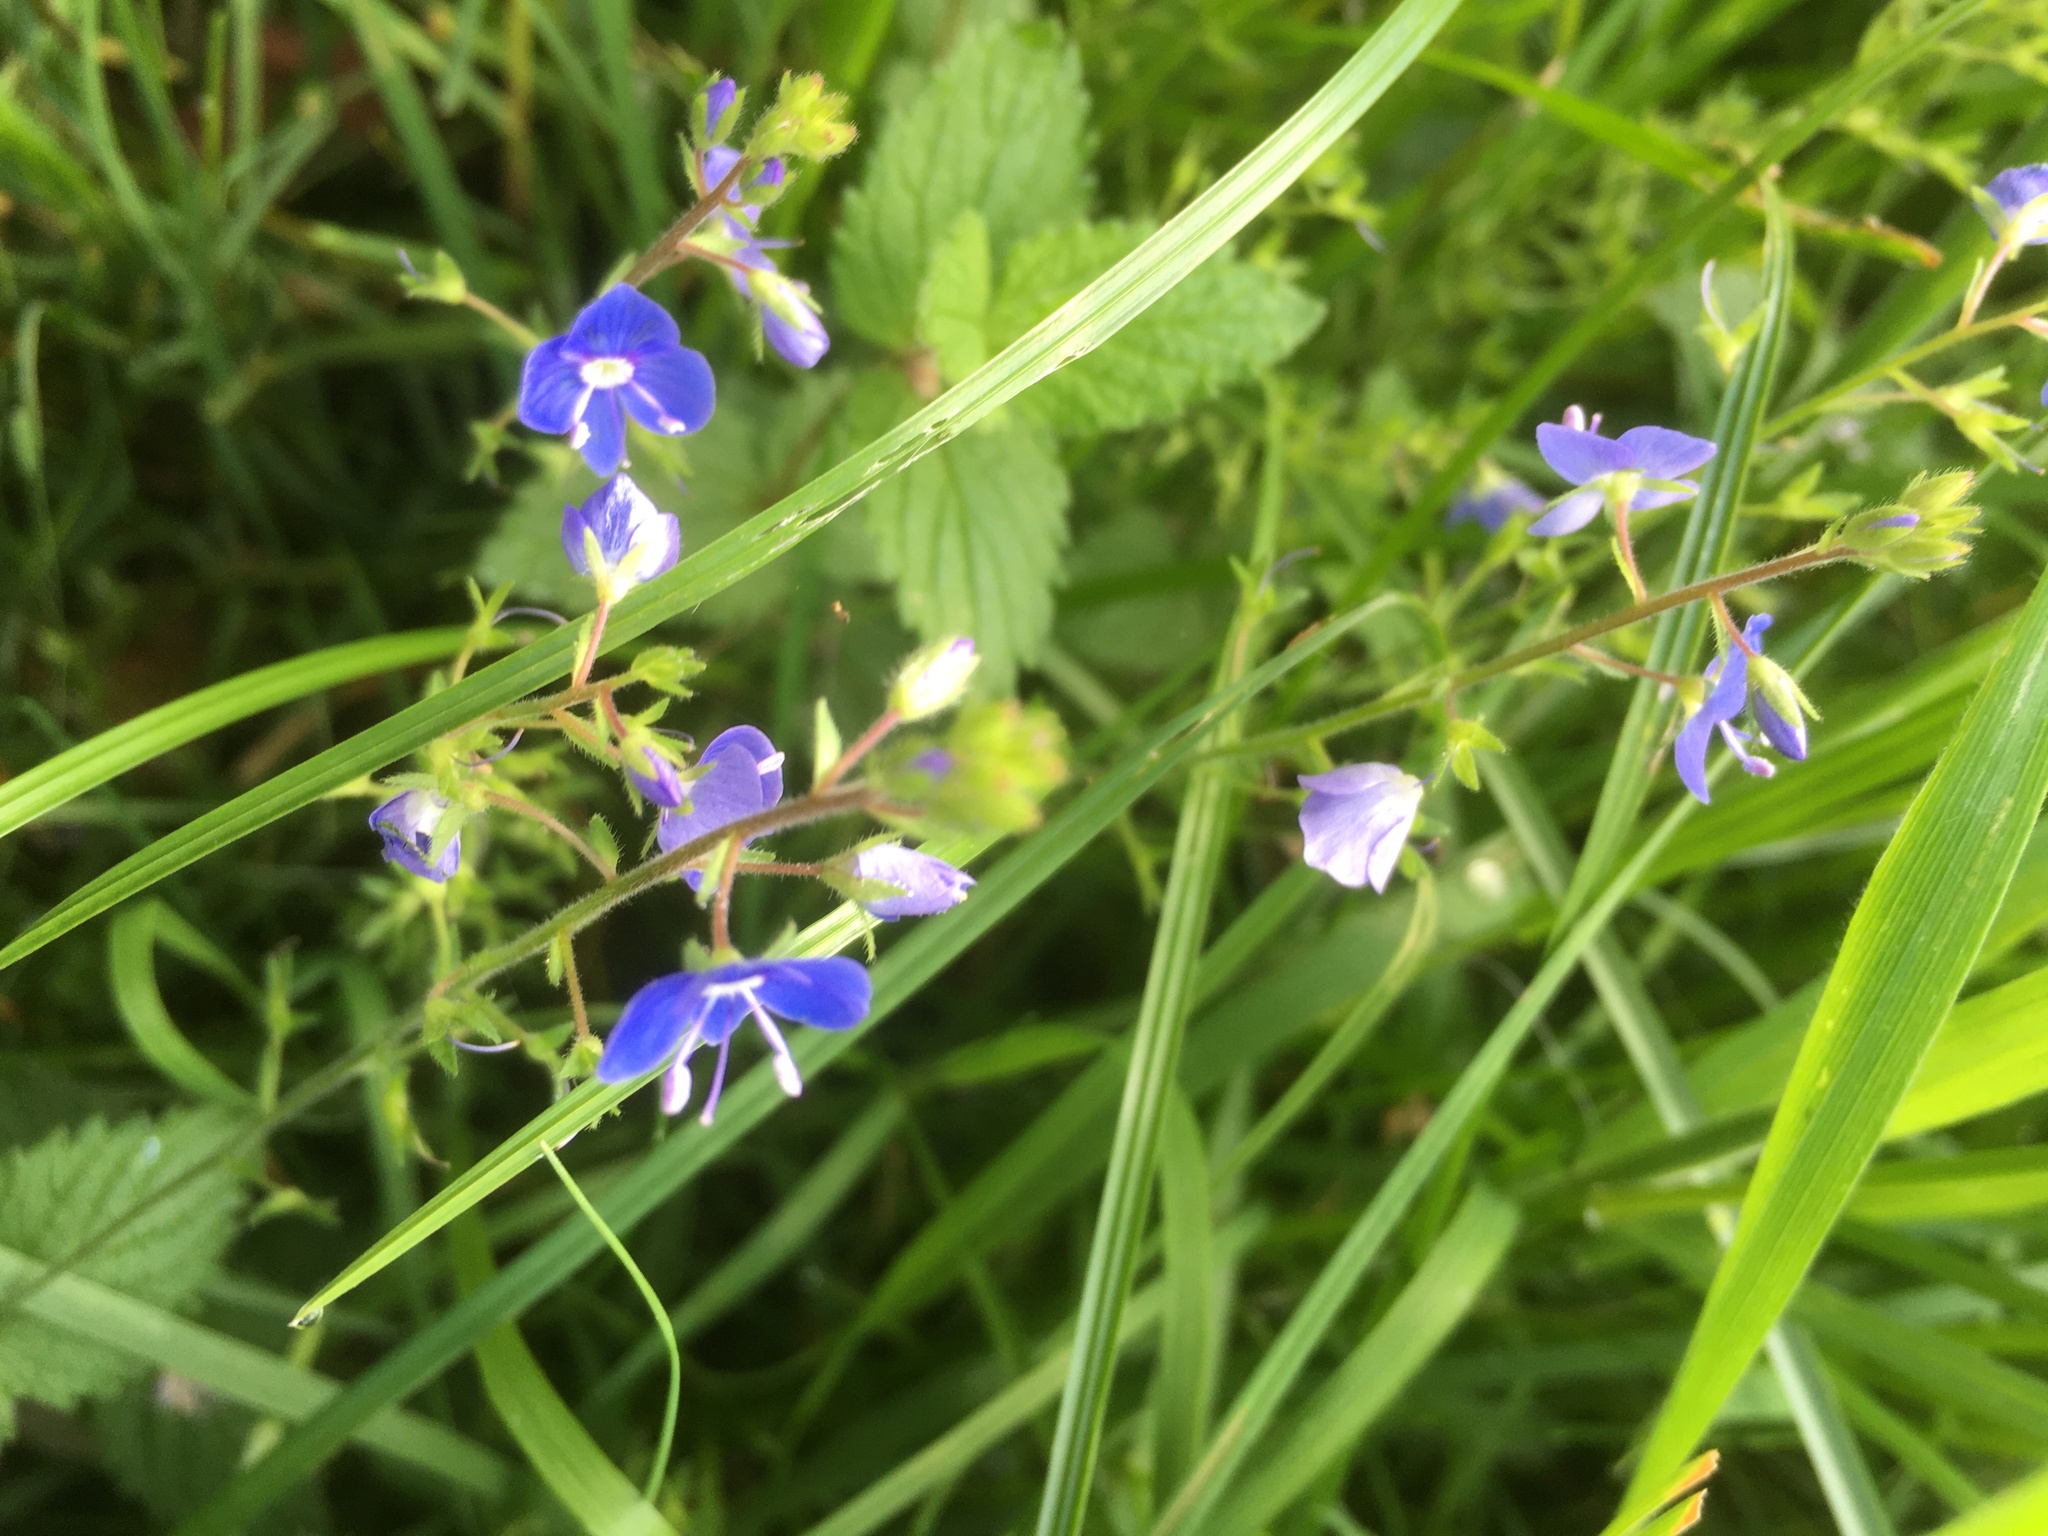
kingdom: Plantae
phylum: Tracheophyta
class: Magnoliopsida
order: Lamiales
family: Plantaginaceae
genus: Veronica
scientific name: Veronica chamaedrys
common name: Germander speedwell
